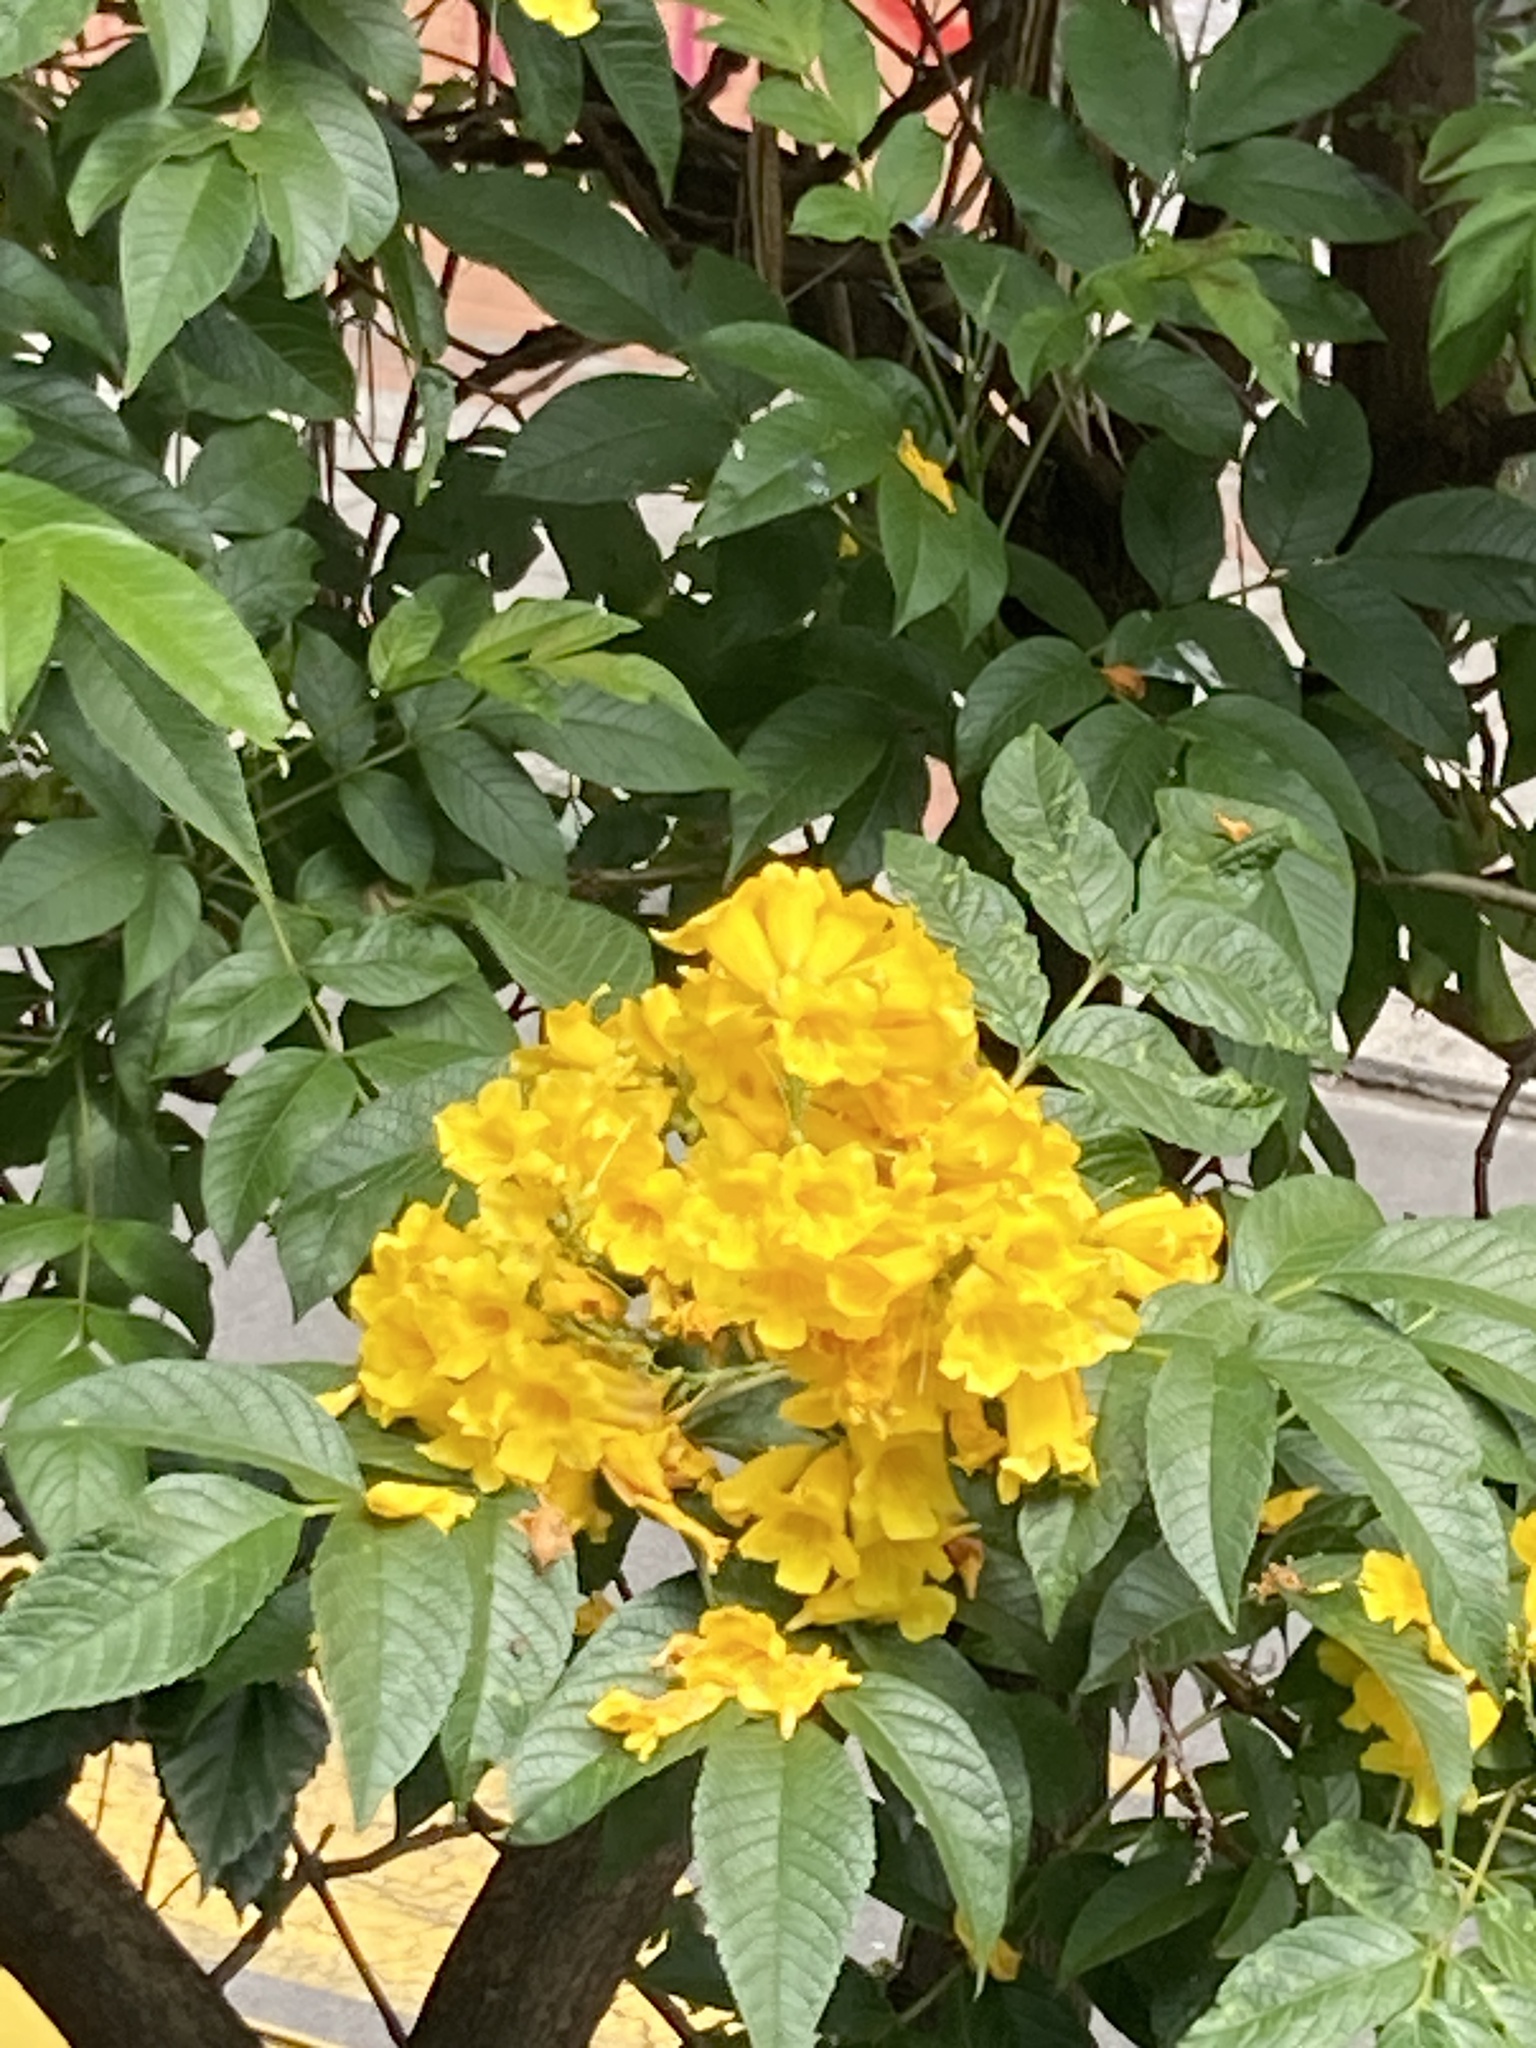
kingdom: Plantae
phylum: Tracheophyta
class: Magnoliopsida
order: Lamiales
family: Bignoniaceae
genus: Tecoma
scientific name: Tecoma stans
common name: Yellow trumpetbush
